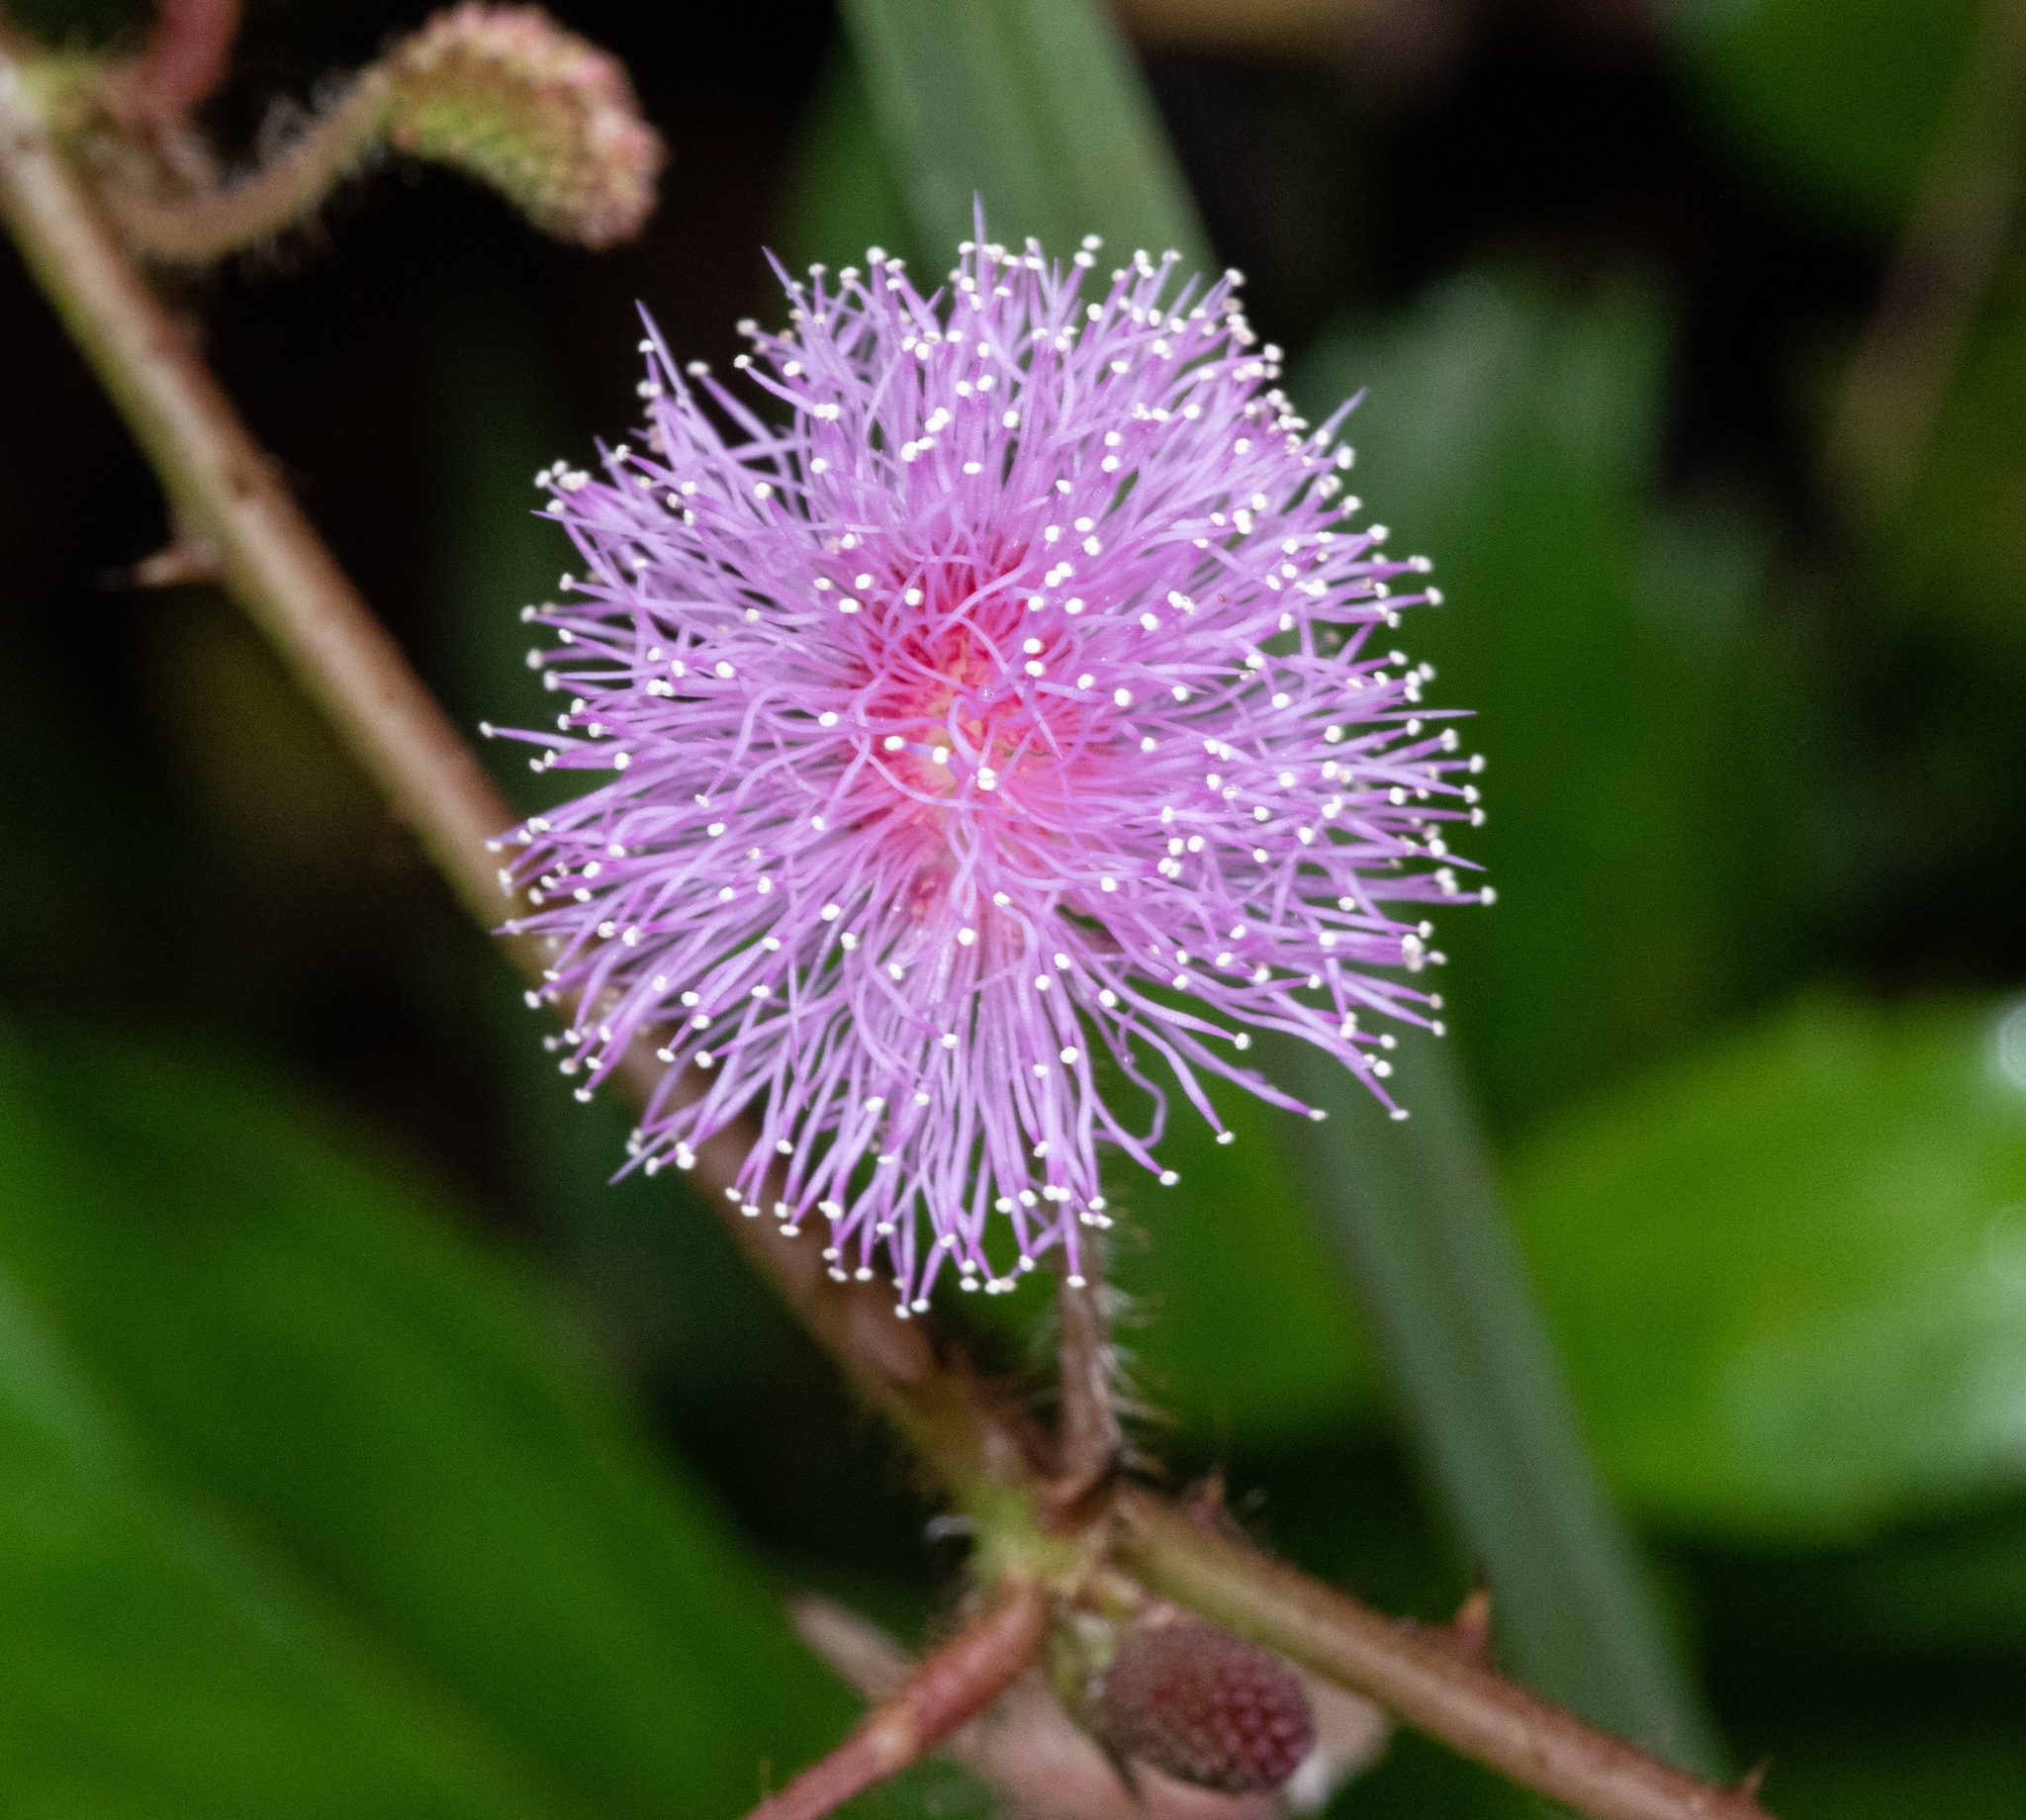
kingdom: Plantae
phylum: Tracheophyta
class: Magnoliopsida
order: Fabales
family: Fabaceae
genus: Mimosa
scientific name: Mimosa pudica
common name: Sensitive plant
